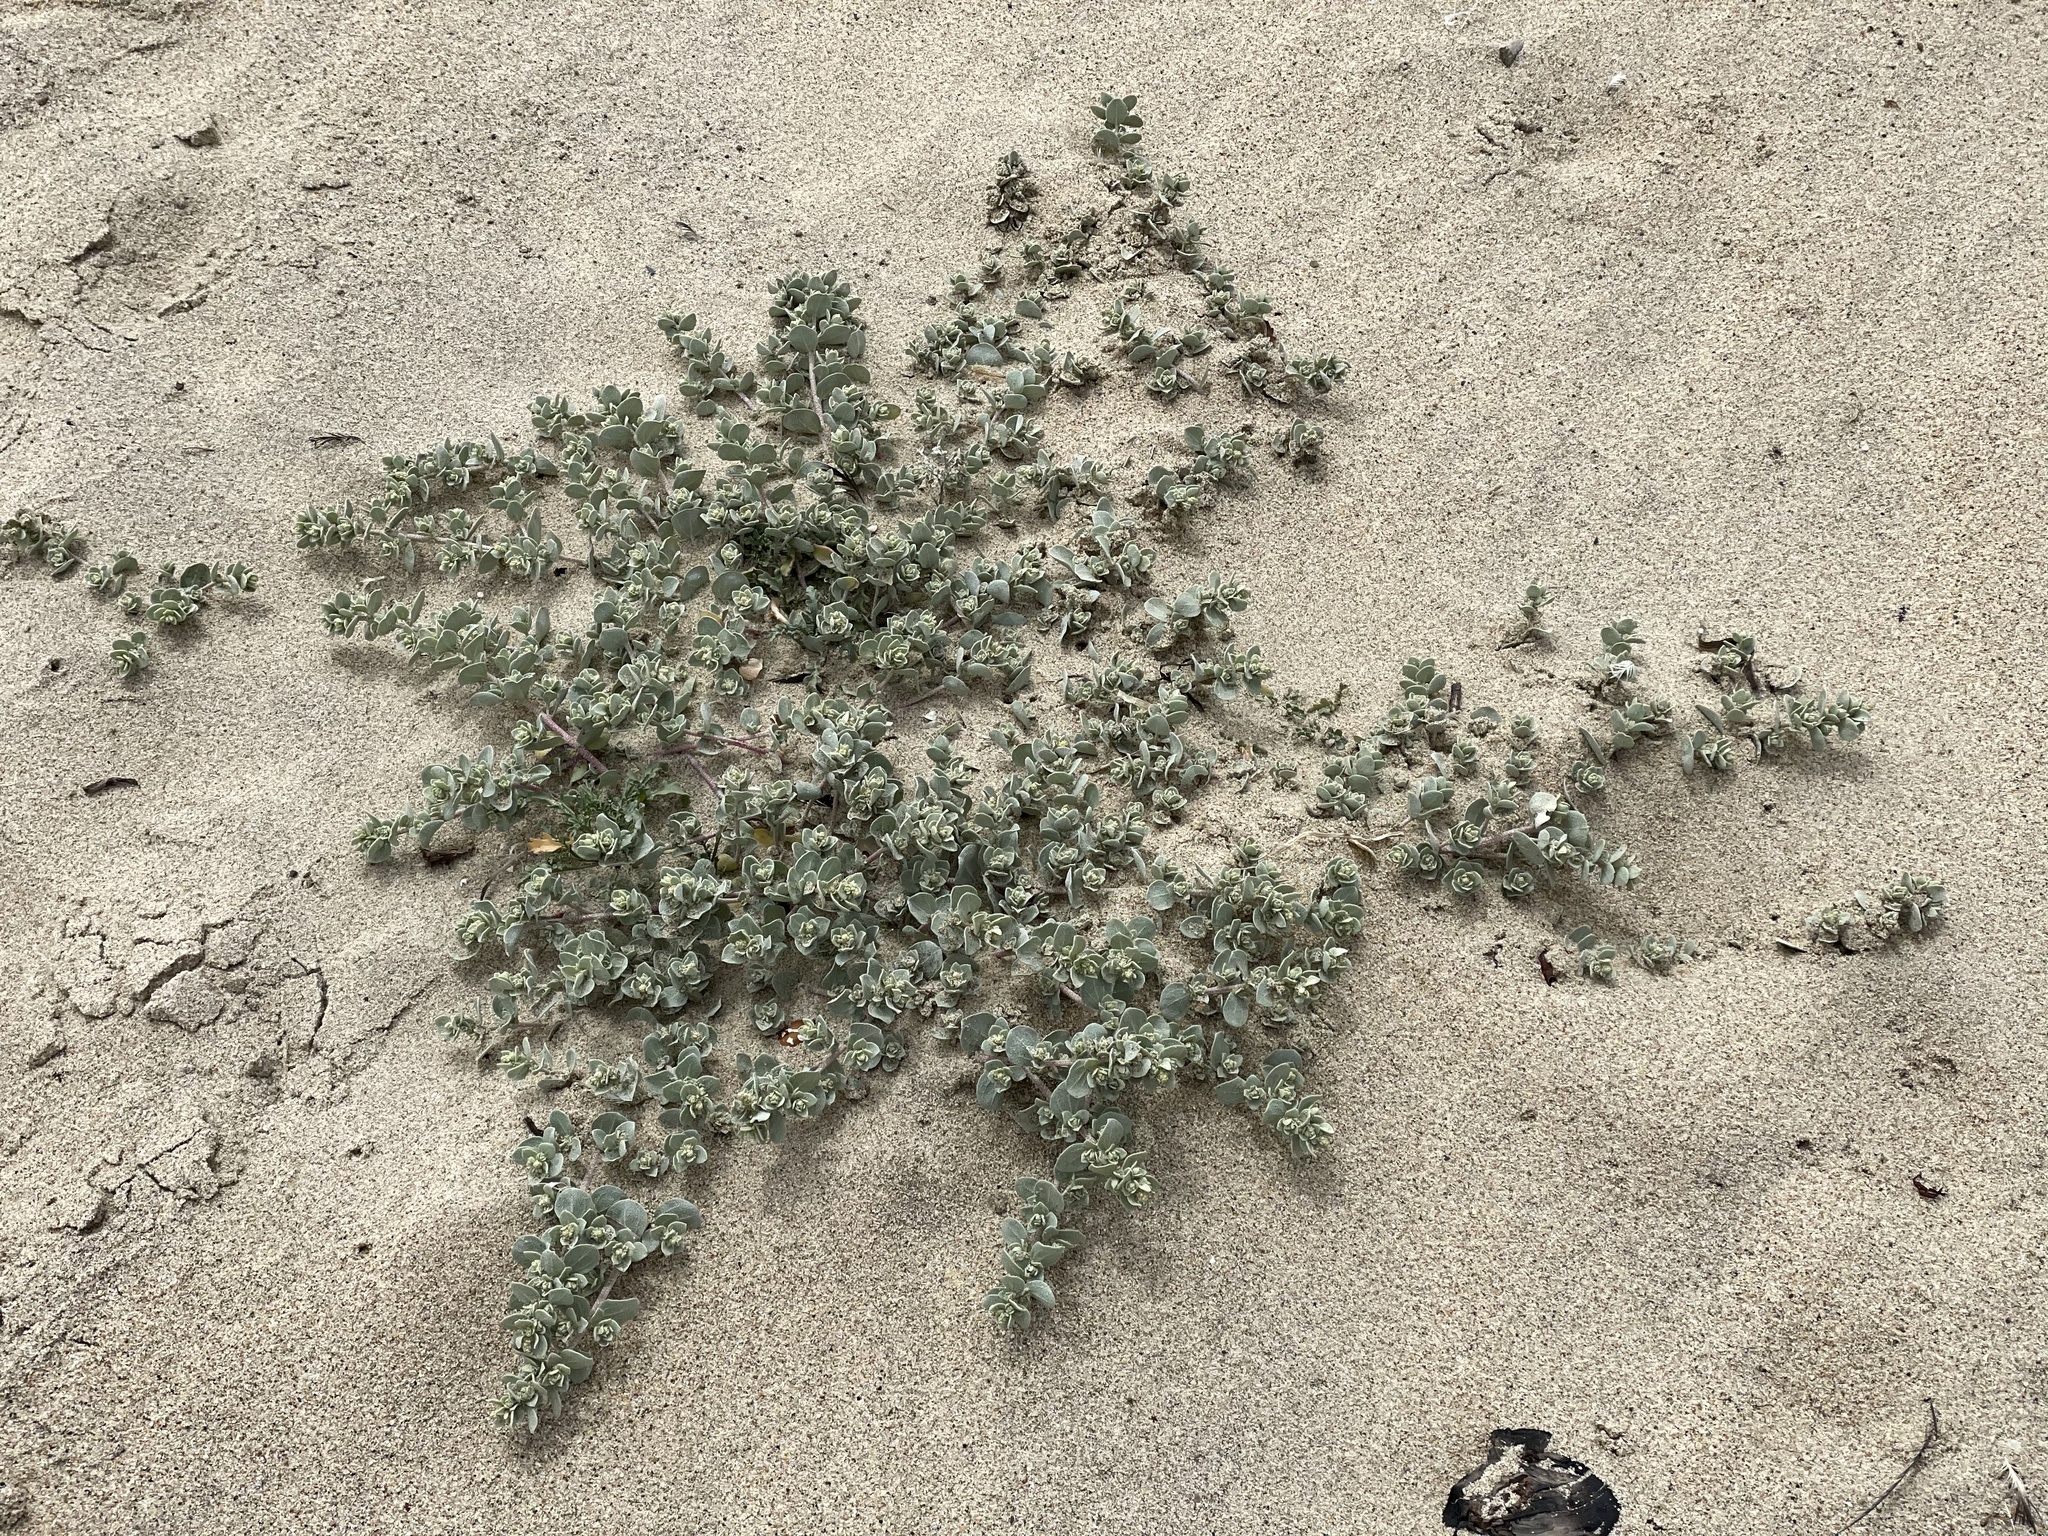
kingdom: Plantae
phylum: Tracheophyta
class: Magnoliopsida
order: Caryophyllales
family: Amaranthaceae
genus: Atriplex
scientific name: Atriplex leucophylla
